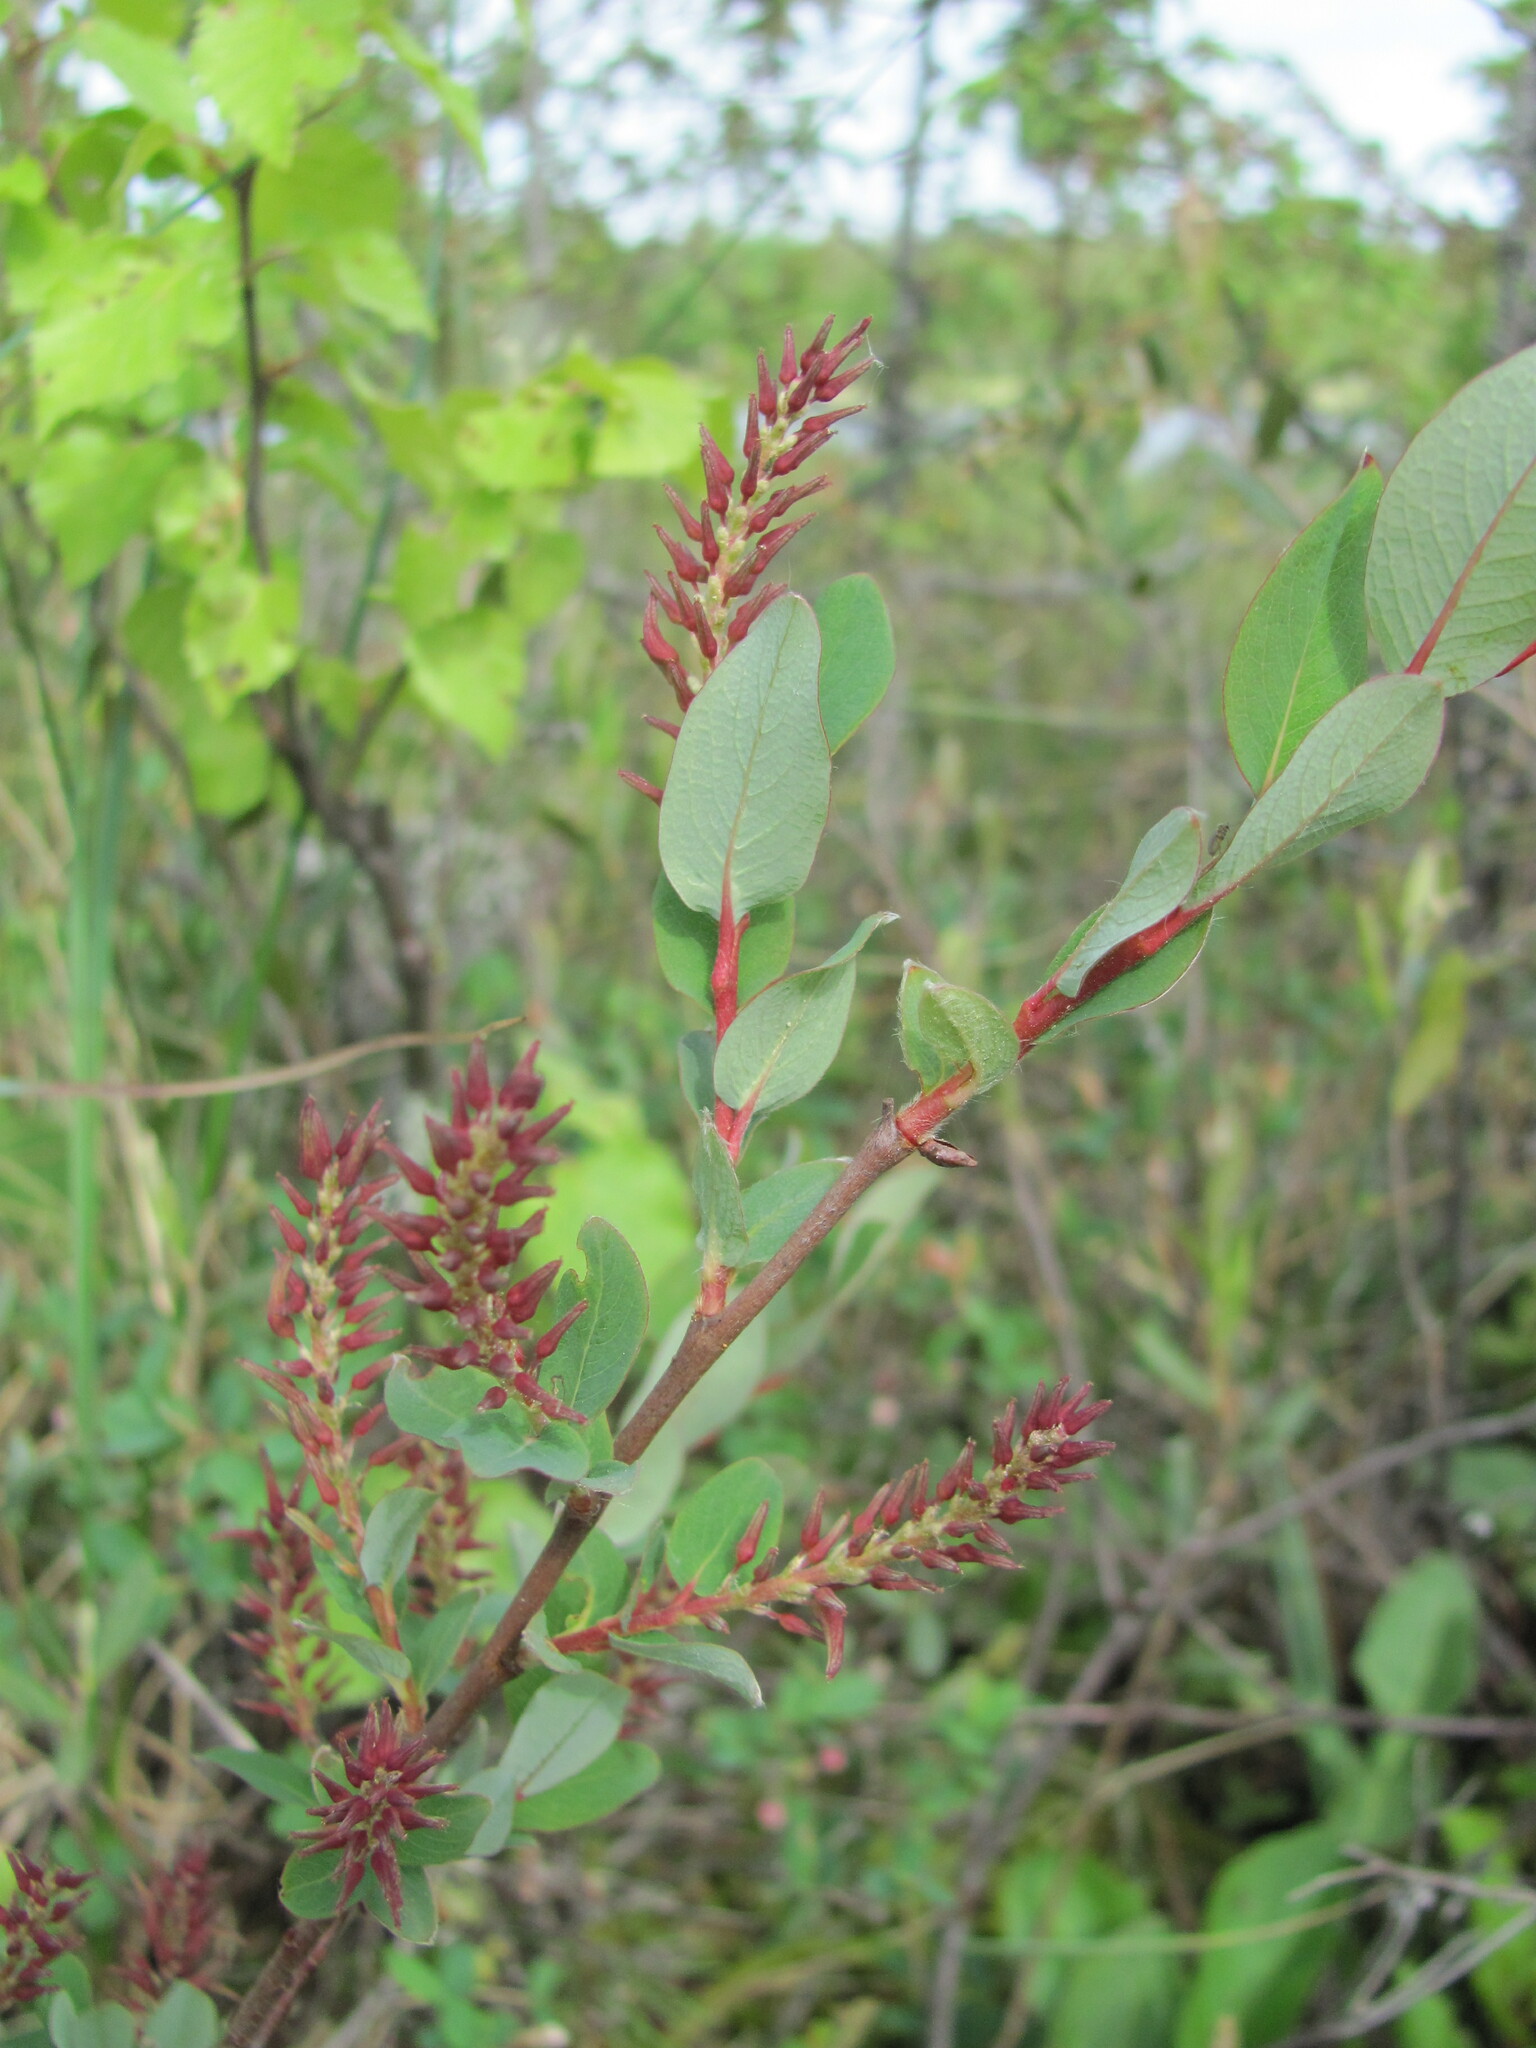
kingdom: Plantae
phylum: Tracheophyta
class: Magnoliopsida
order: Malpighiales
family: Salicaceae
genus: Salix
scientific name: Salix myrtilloides
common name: Myrtle-leaved willow
